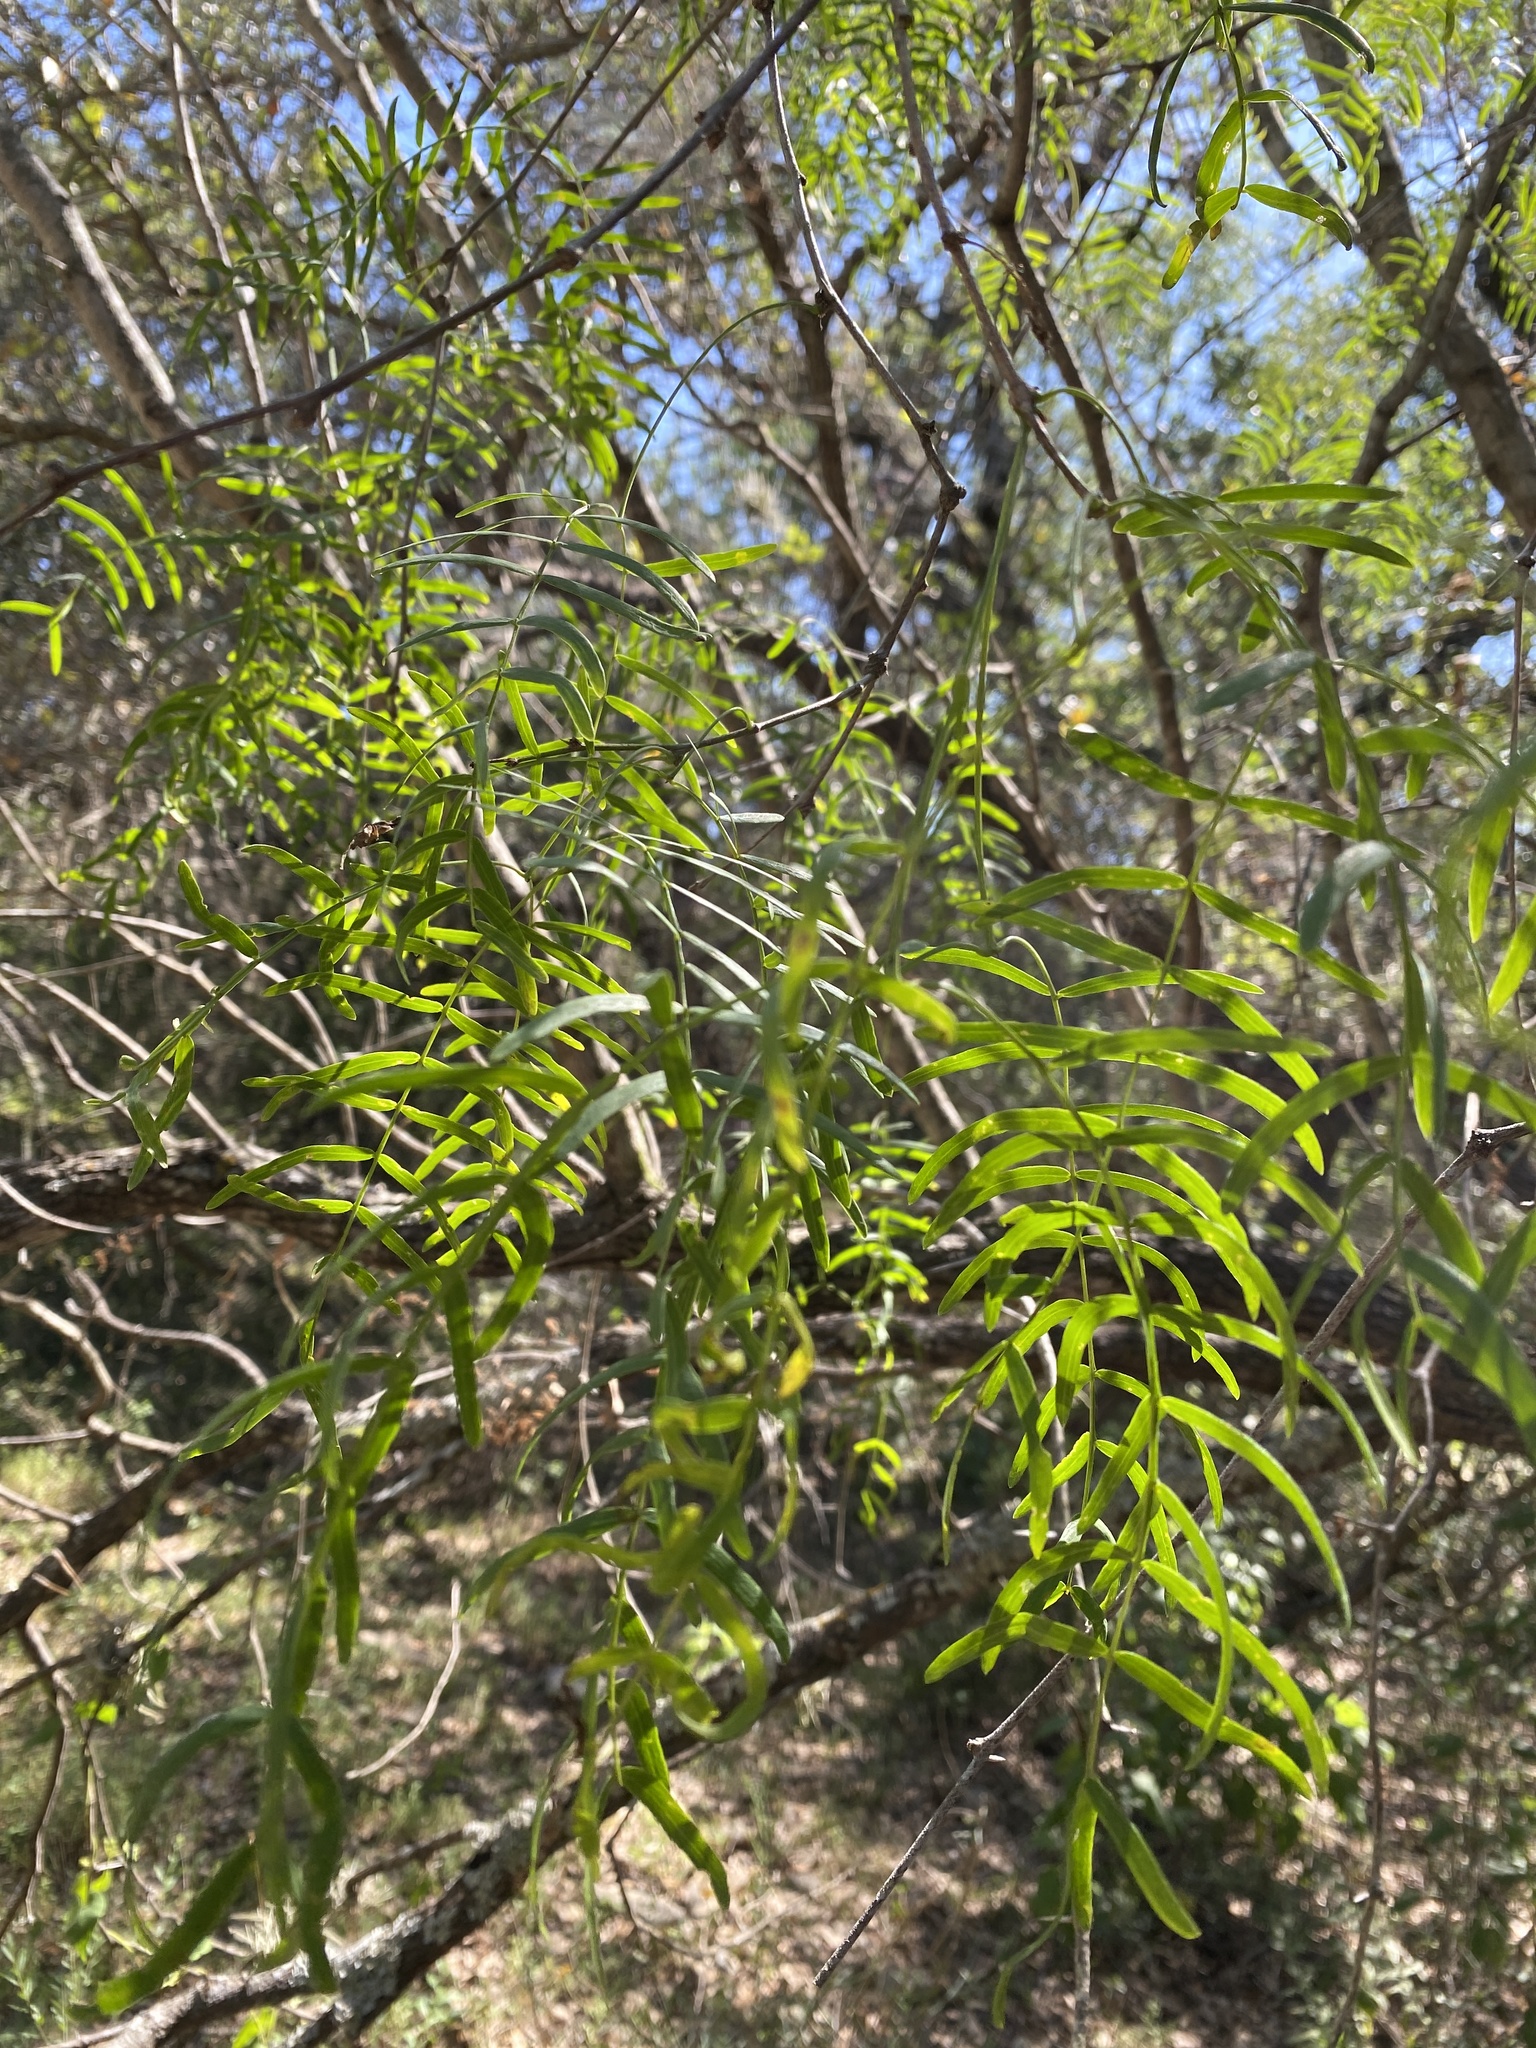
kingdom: Plantae
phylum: Tracheophyta
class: Magnoliopsida
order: Fabales
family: Fabaceae
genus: Prosopis
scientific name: Prosopis glandulosa
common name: Honey mesquite
